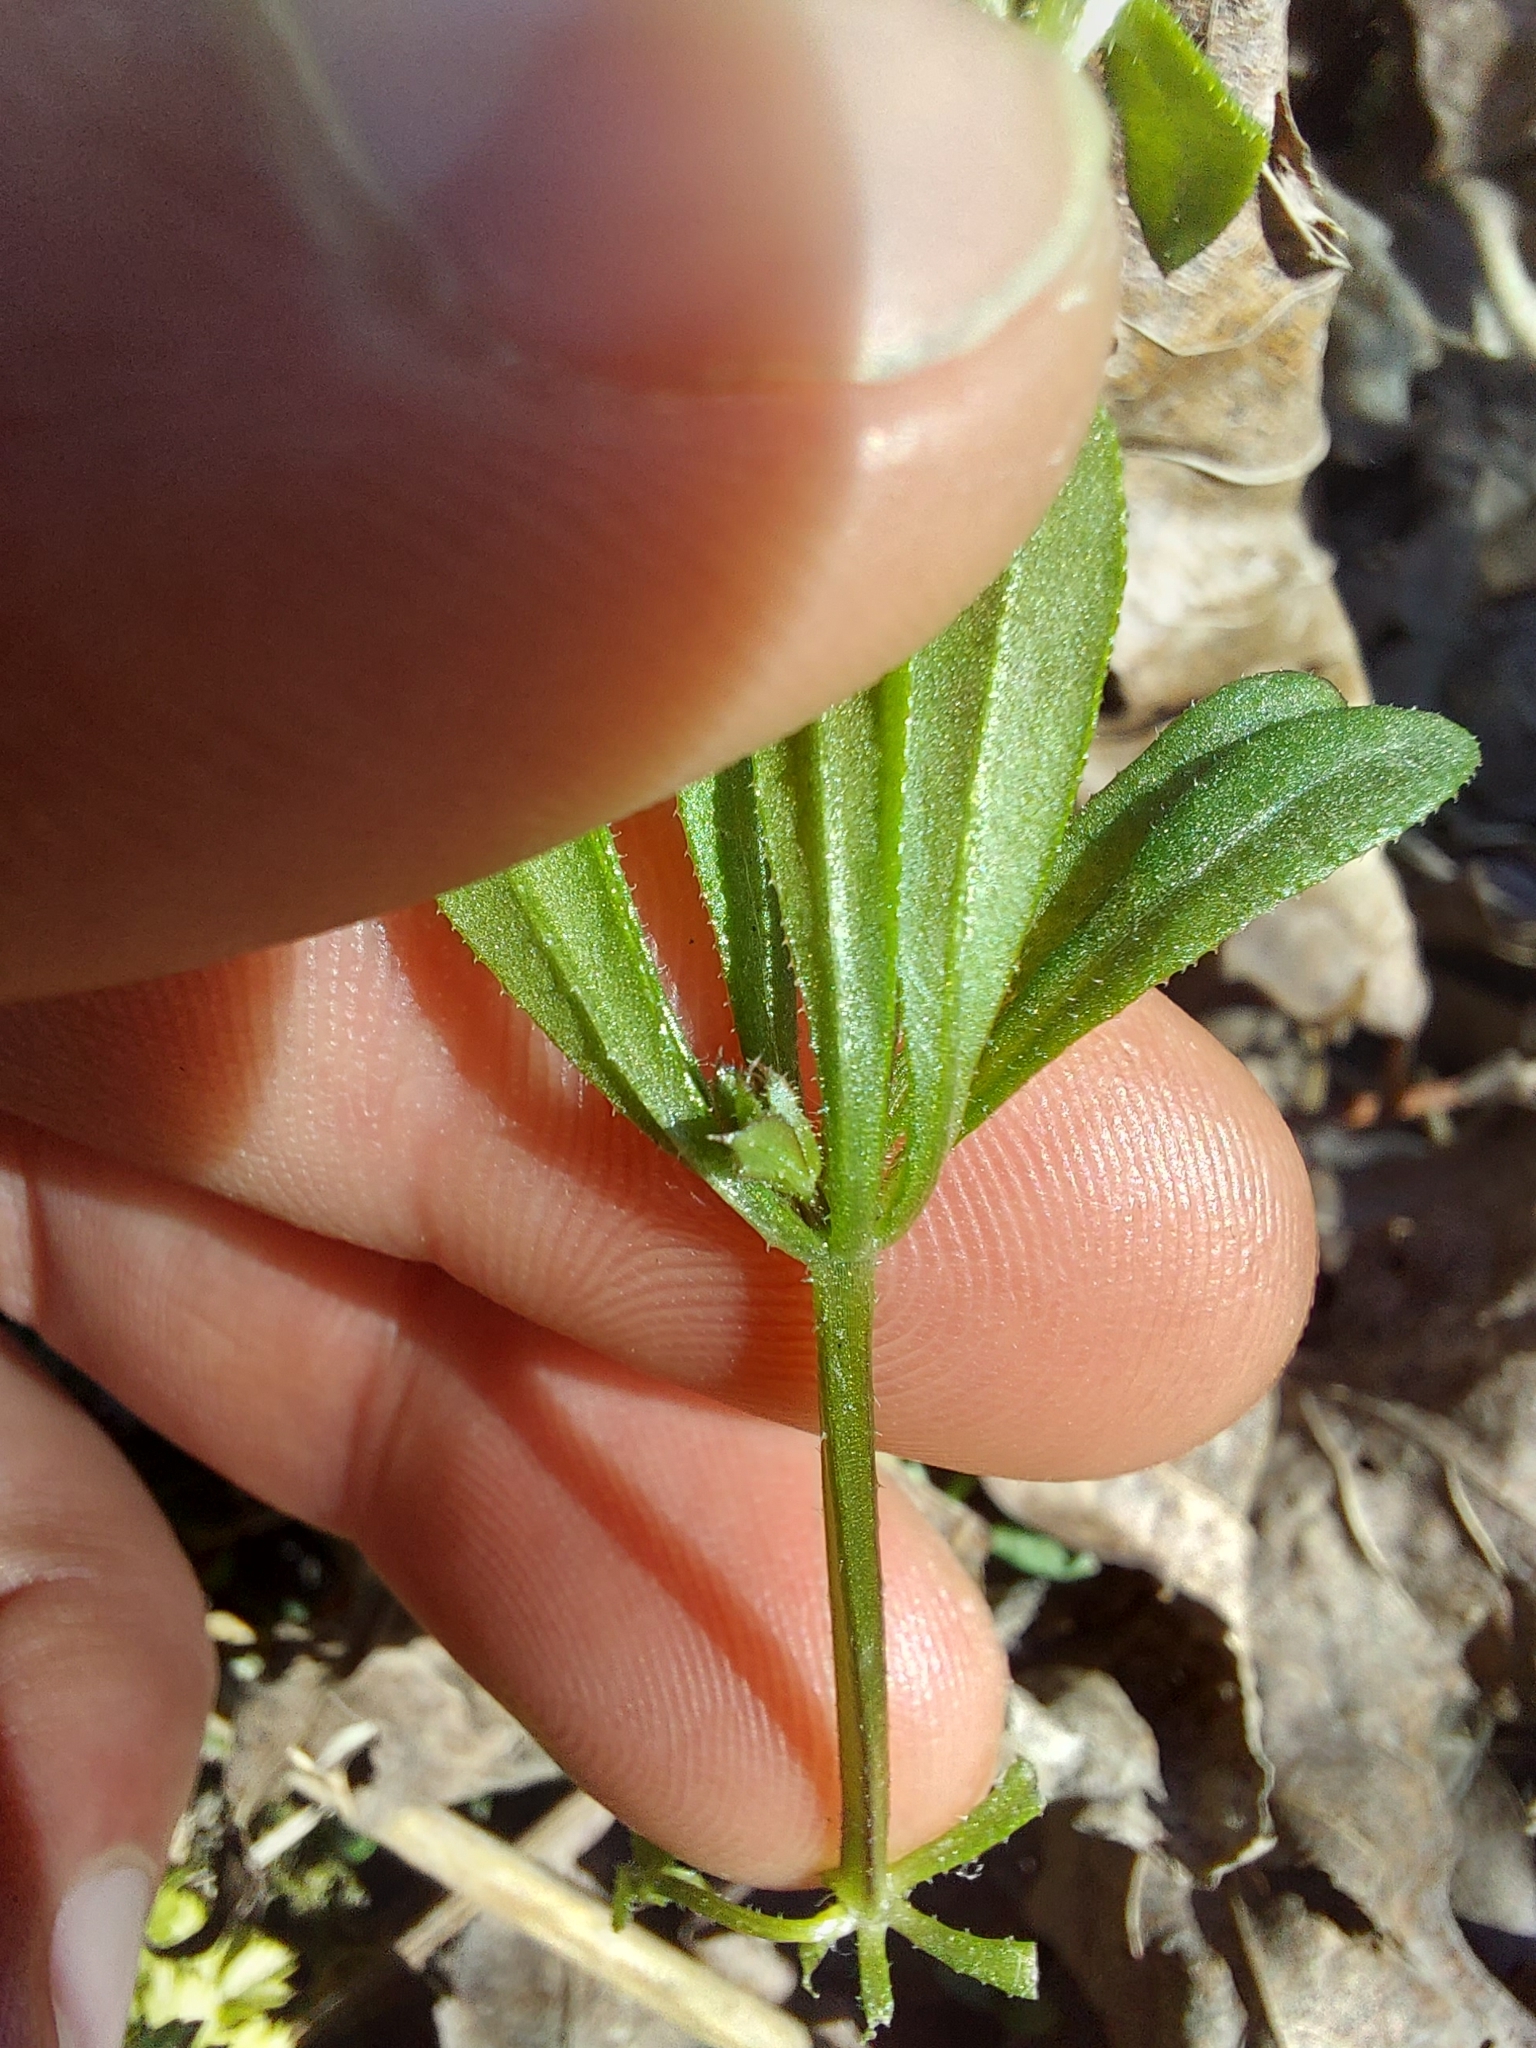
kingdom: Plantae
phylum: Tracheophyta
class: Magnoliopsida
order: Gentianales
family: Rubiaceae
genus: Galium
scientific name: Galium aparine
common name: Cleavers
